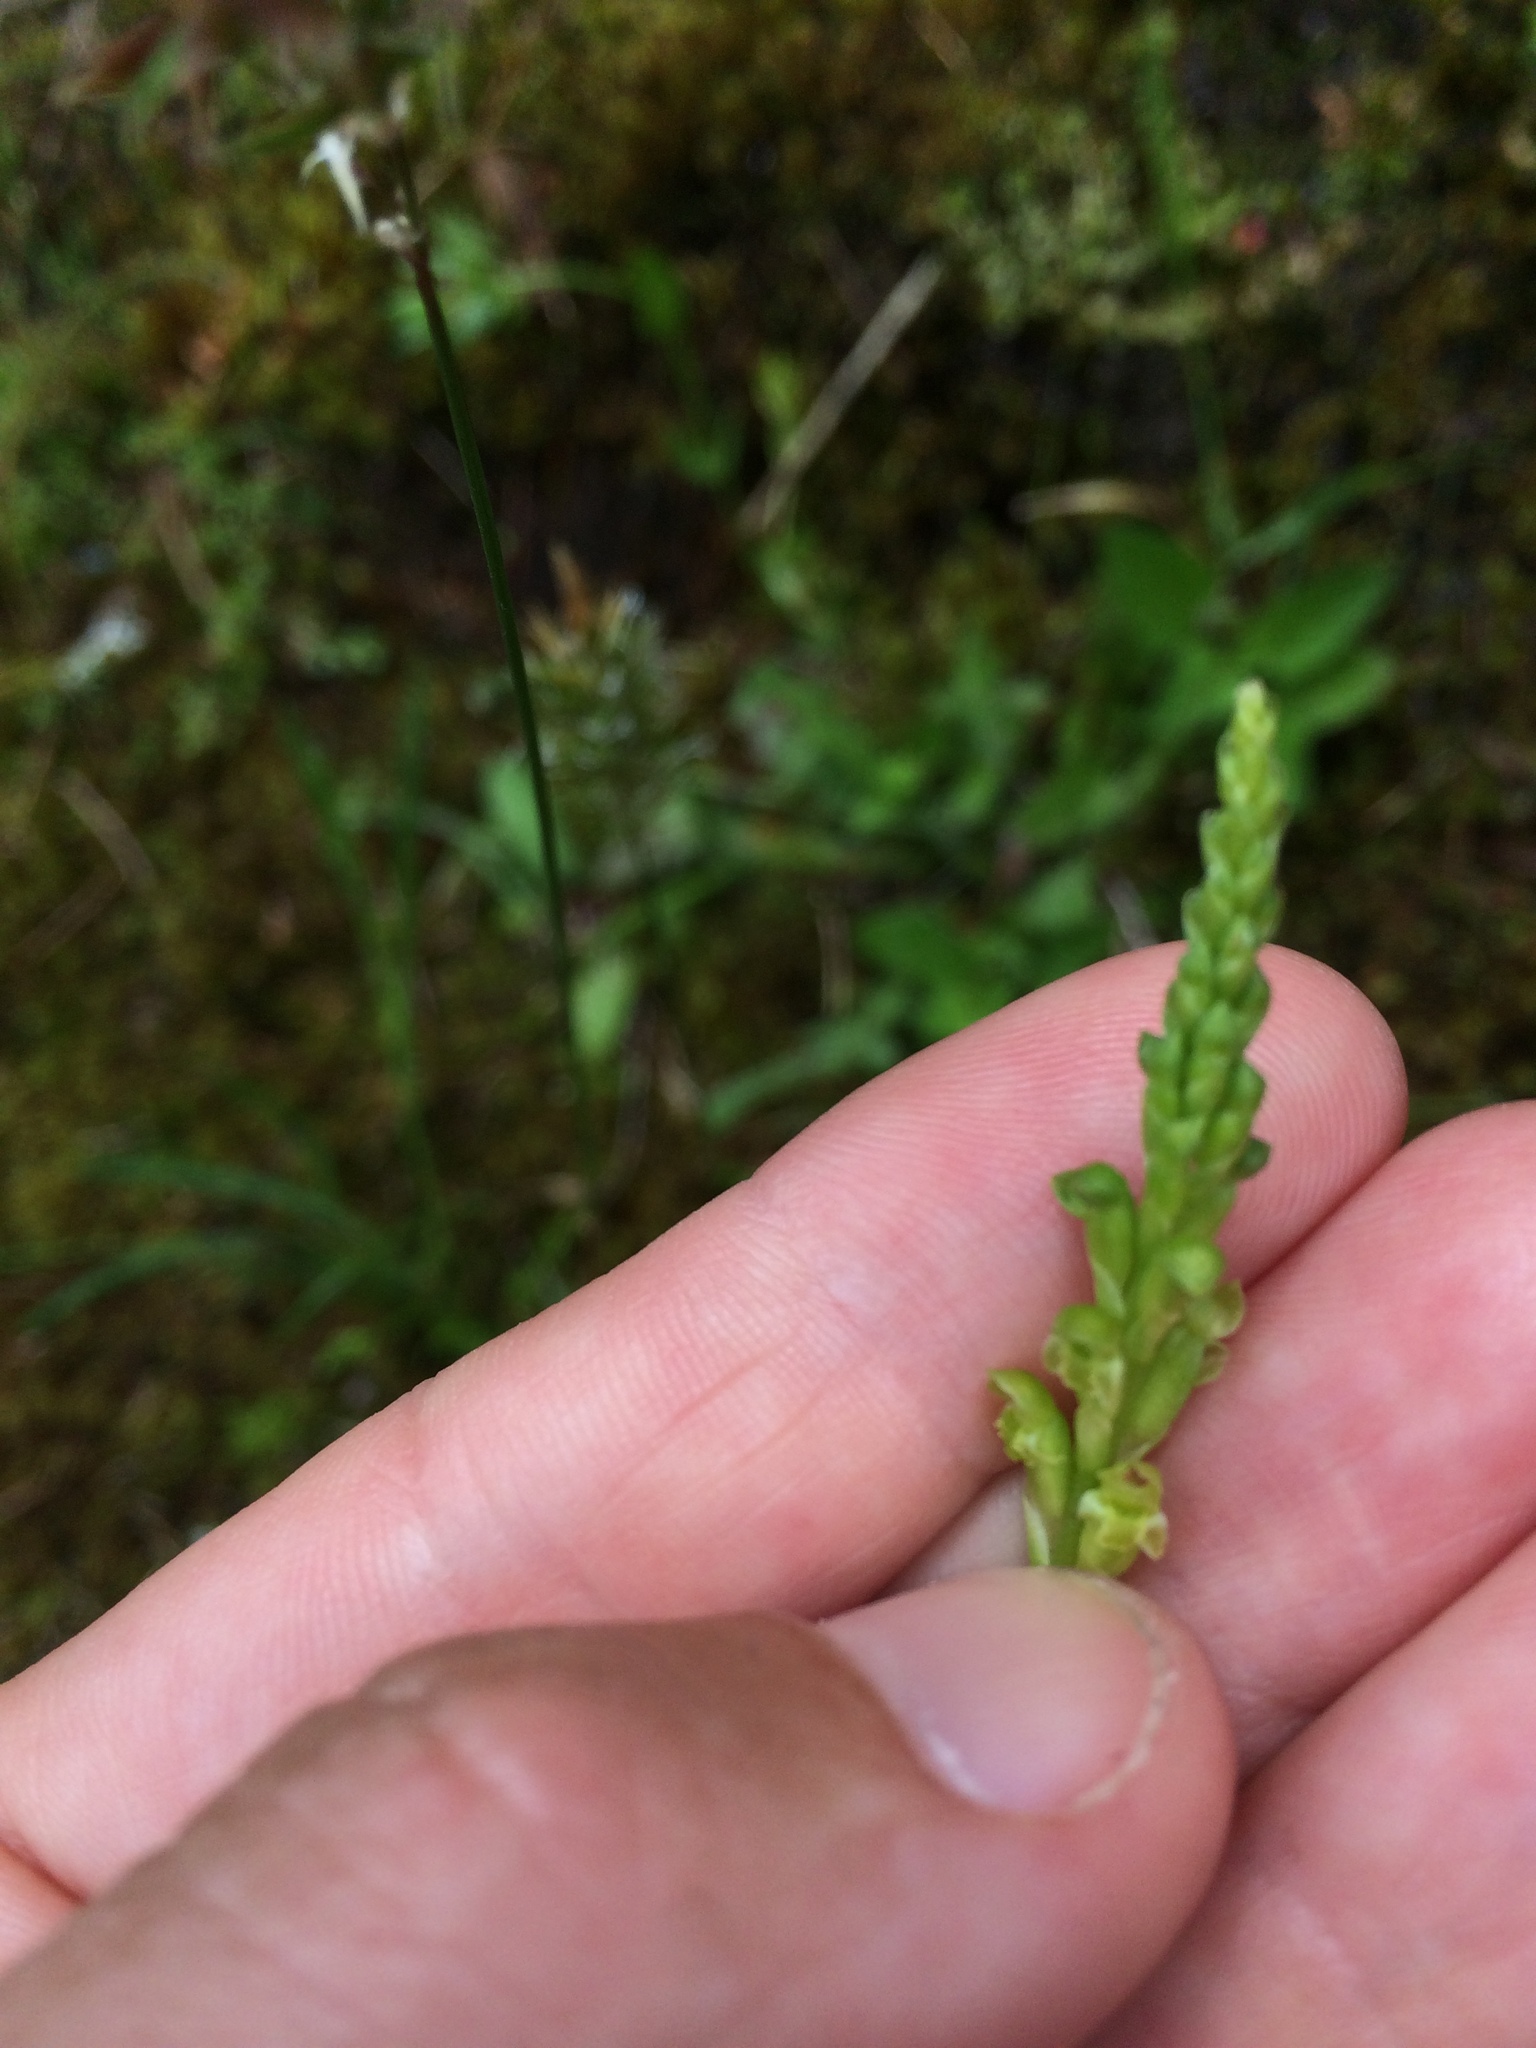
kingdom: Plantae
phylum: Tracheophyta
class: Liliopsida
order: Asparagales
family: Orchidaceae
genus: Microtis
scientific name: Microtis unifolia
